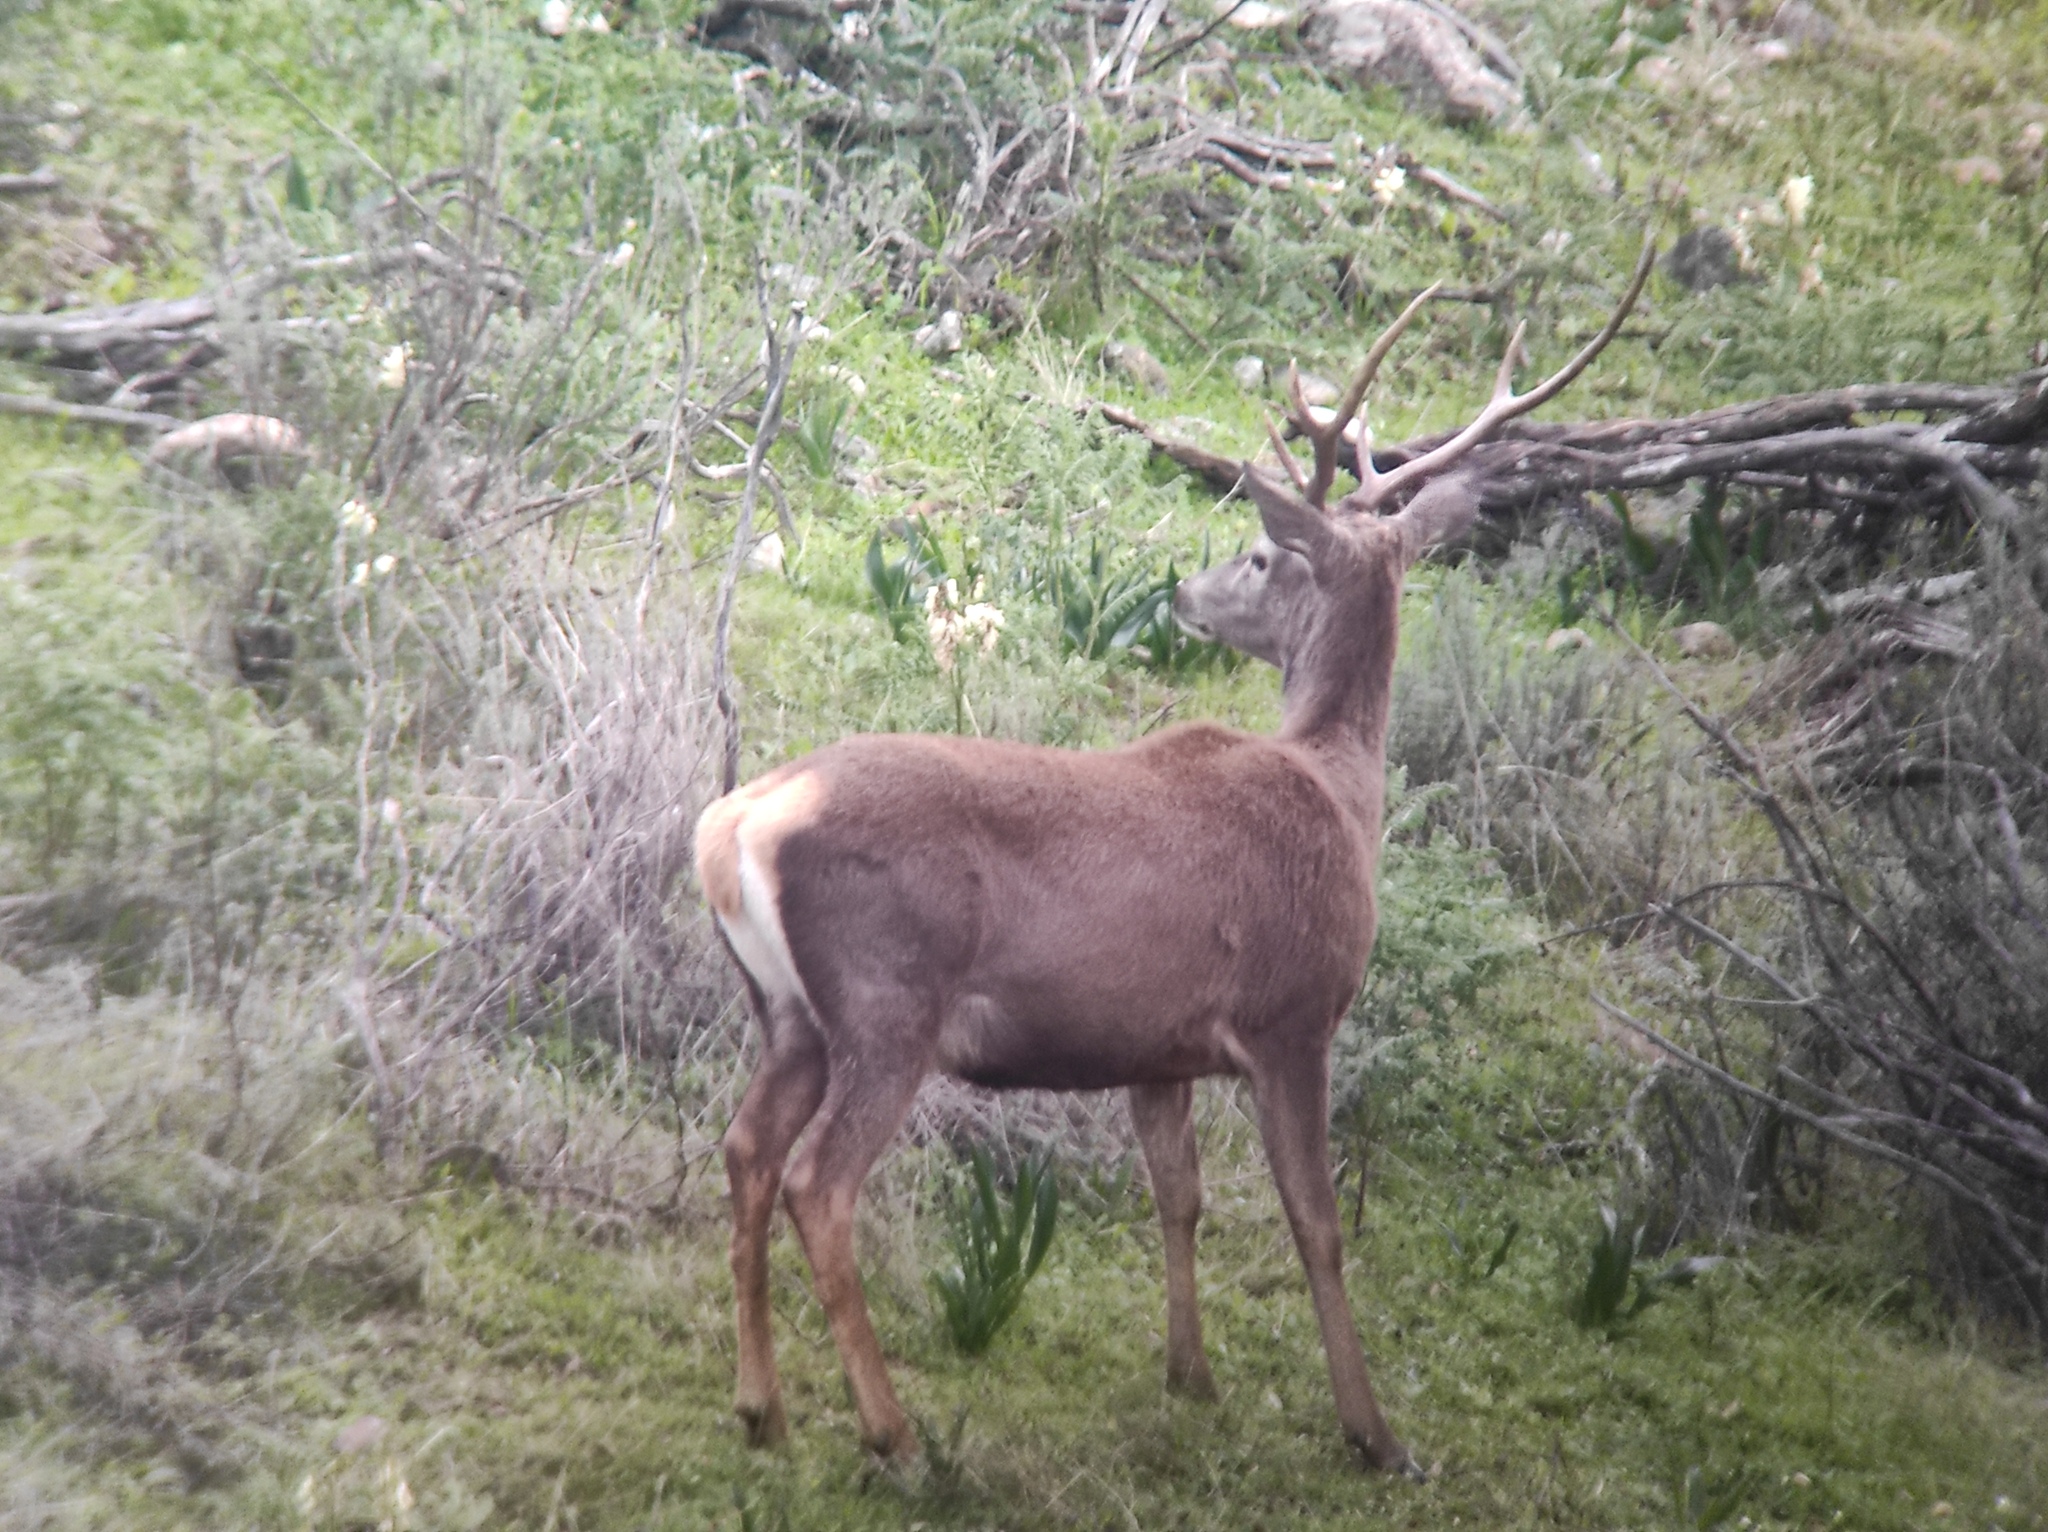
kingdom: Animalia
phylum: Chordata
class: Mammalia
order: Artiodactyla
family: Cervidae
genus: Cervus
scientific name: Cervus elaphus
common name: Red deer
